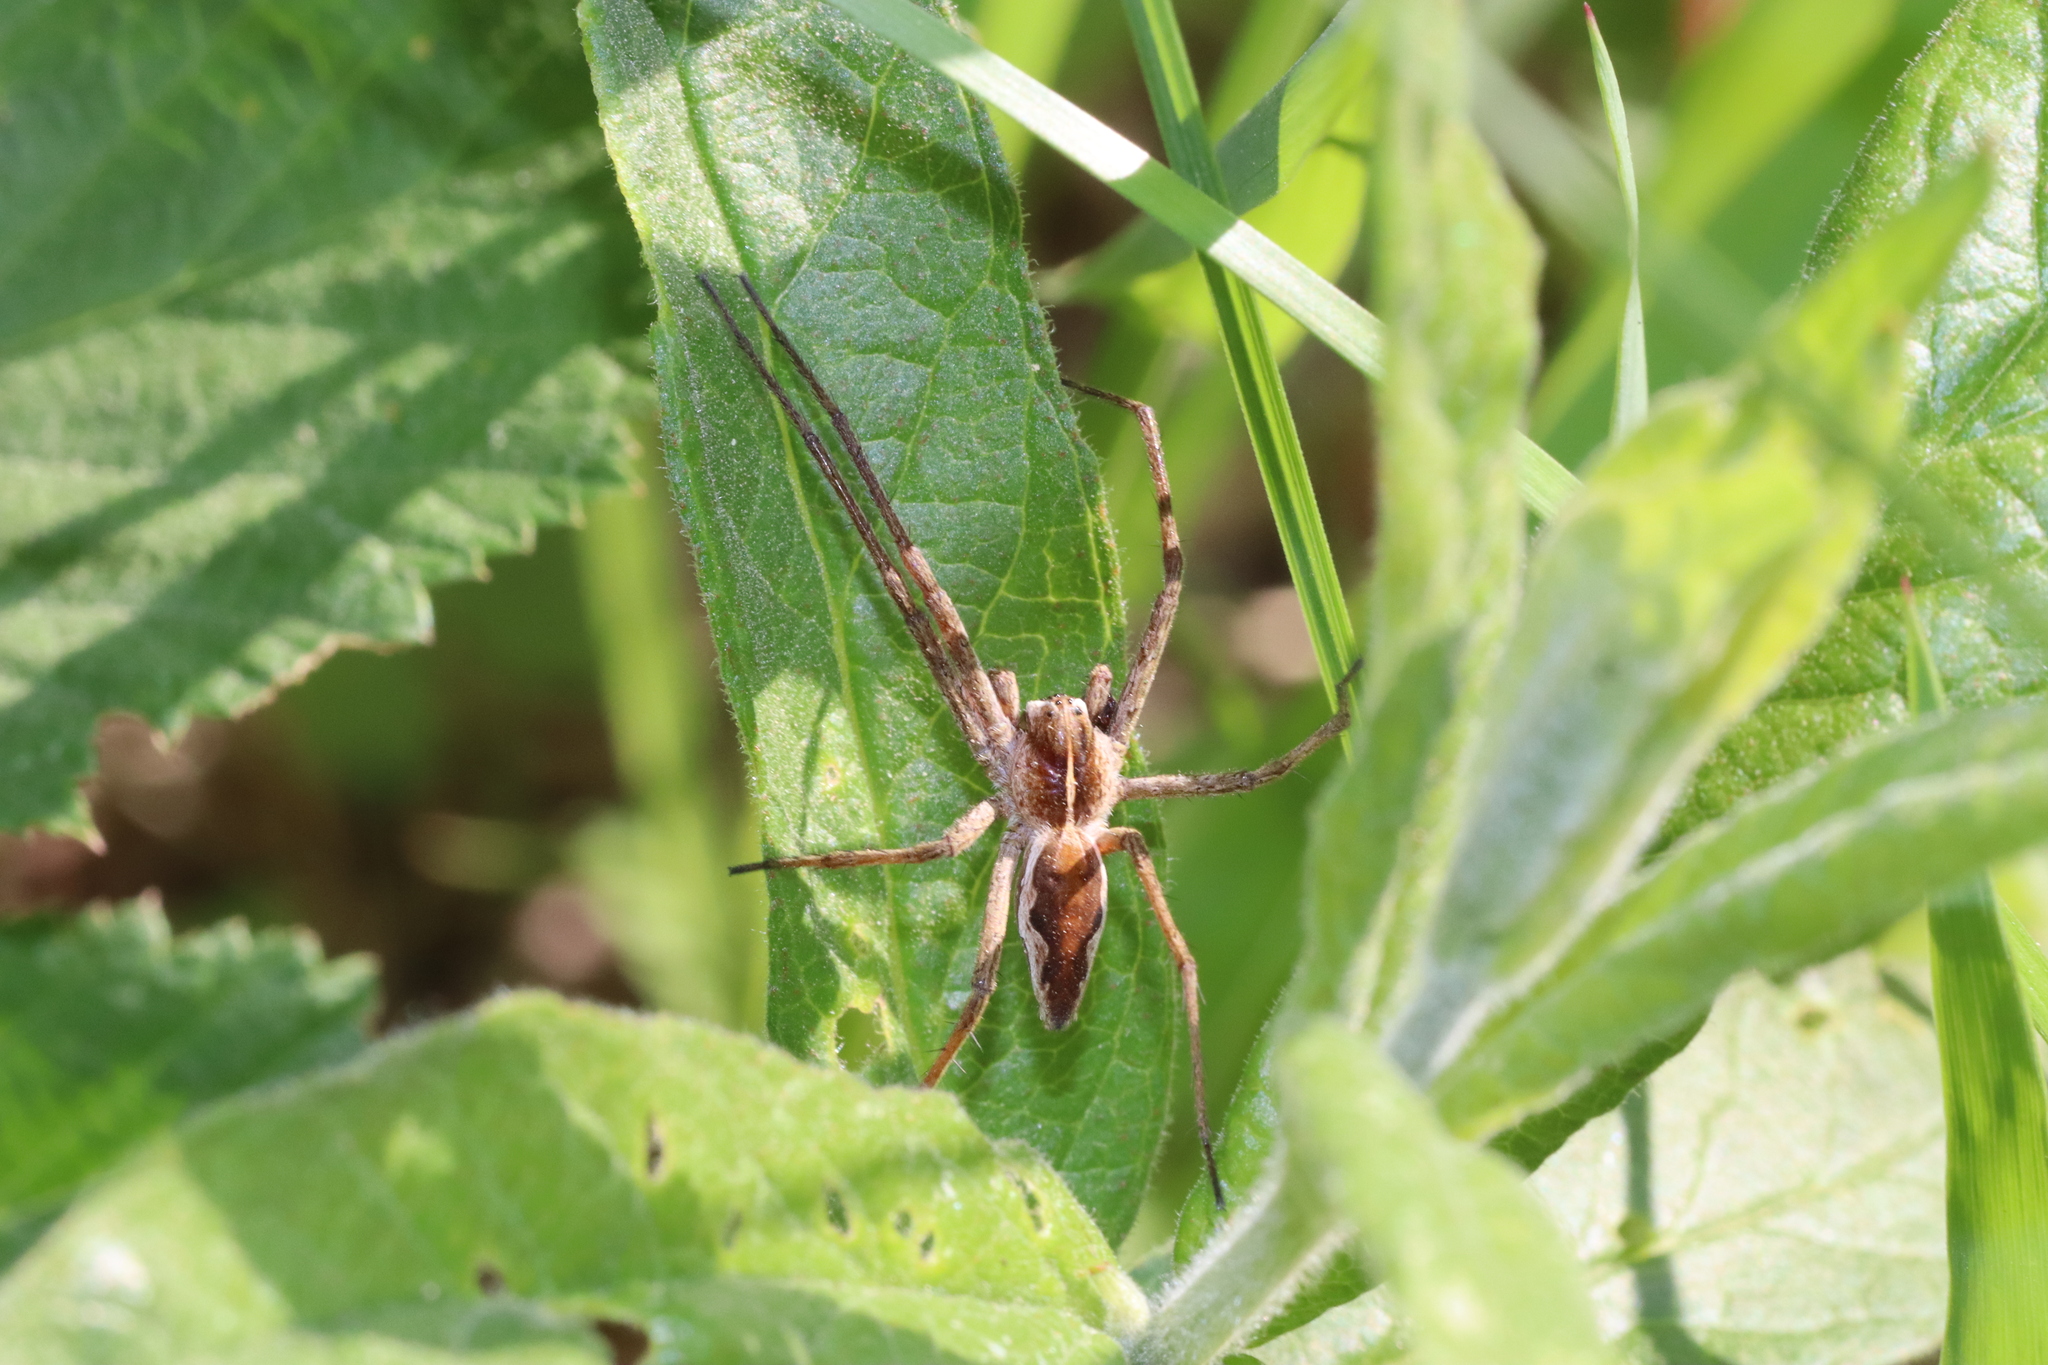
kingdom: Animalia
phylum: Arthropoda
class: Arachnida
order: Araneae
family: Pisauridae
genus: Pisaura
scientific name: Pisaura mirabilis
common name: Tent spider
